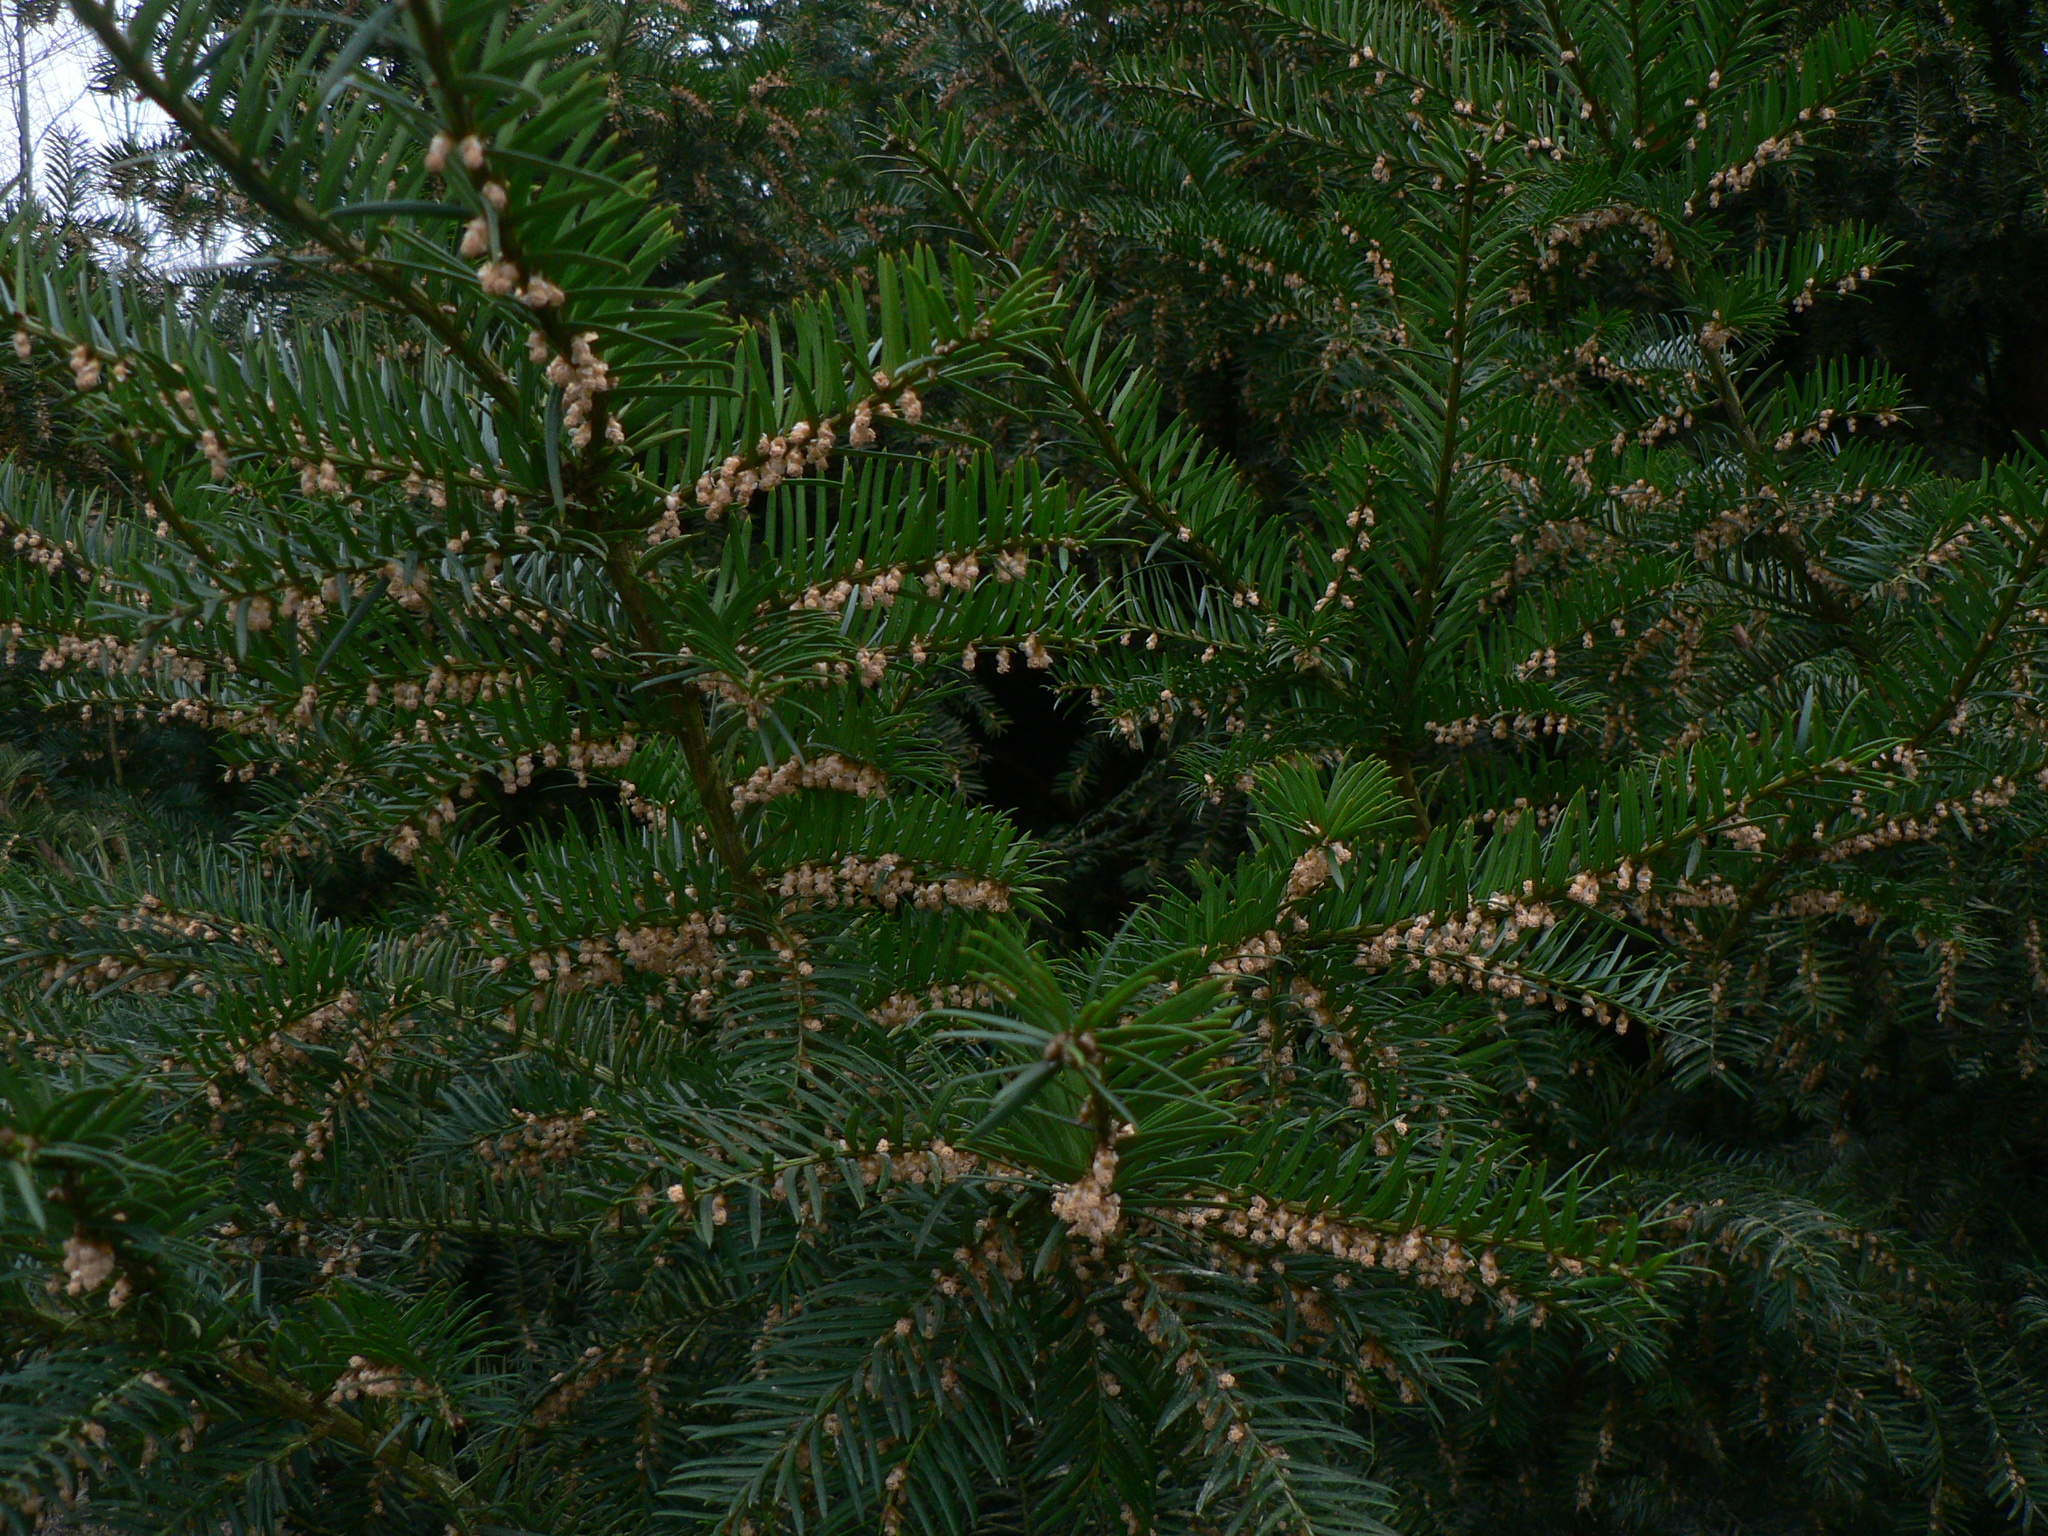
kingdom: Plantae
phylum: Tracheophyta
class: Pinopsida
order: Pinales
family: Taxaceae
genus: Taxus
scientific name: Taxus baccata
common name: Yew
